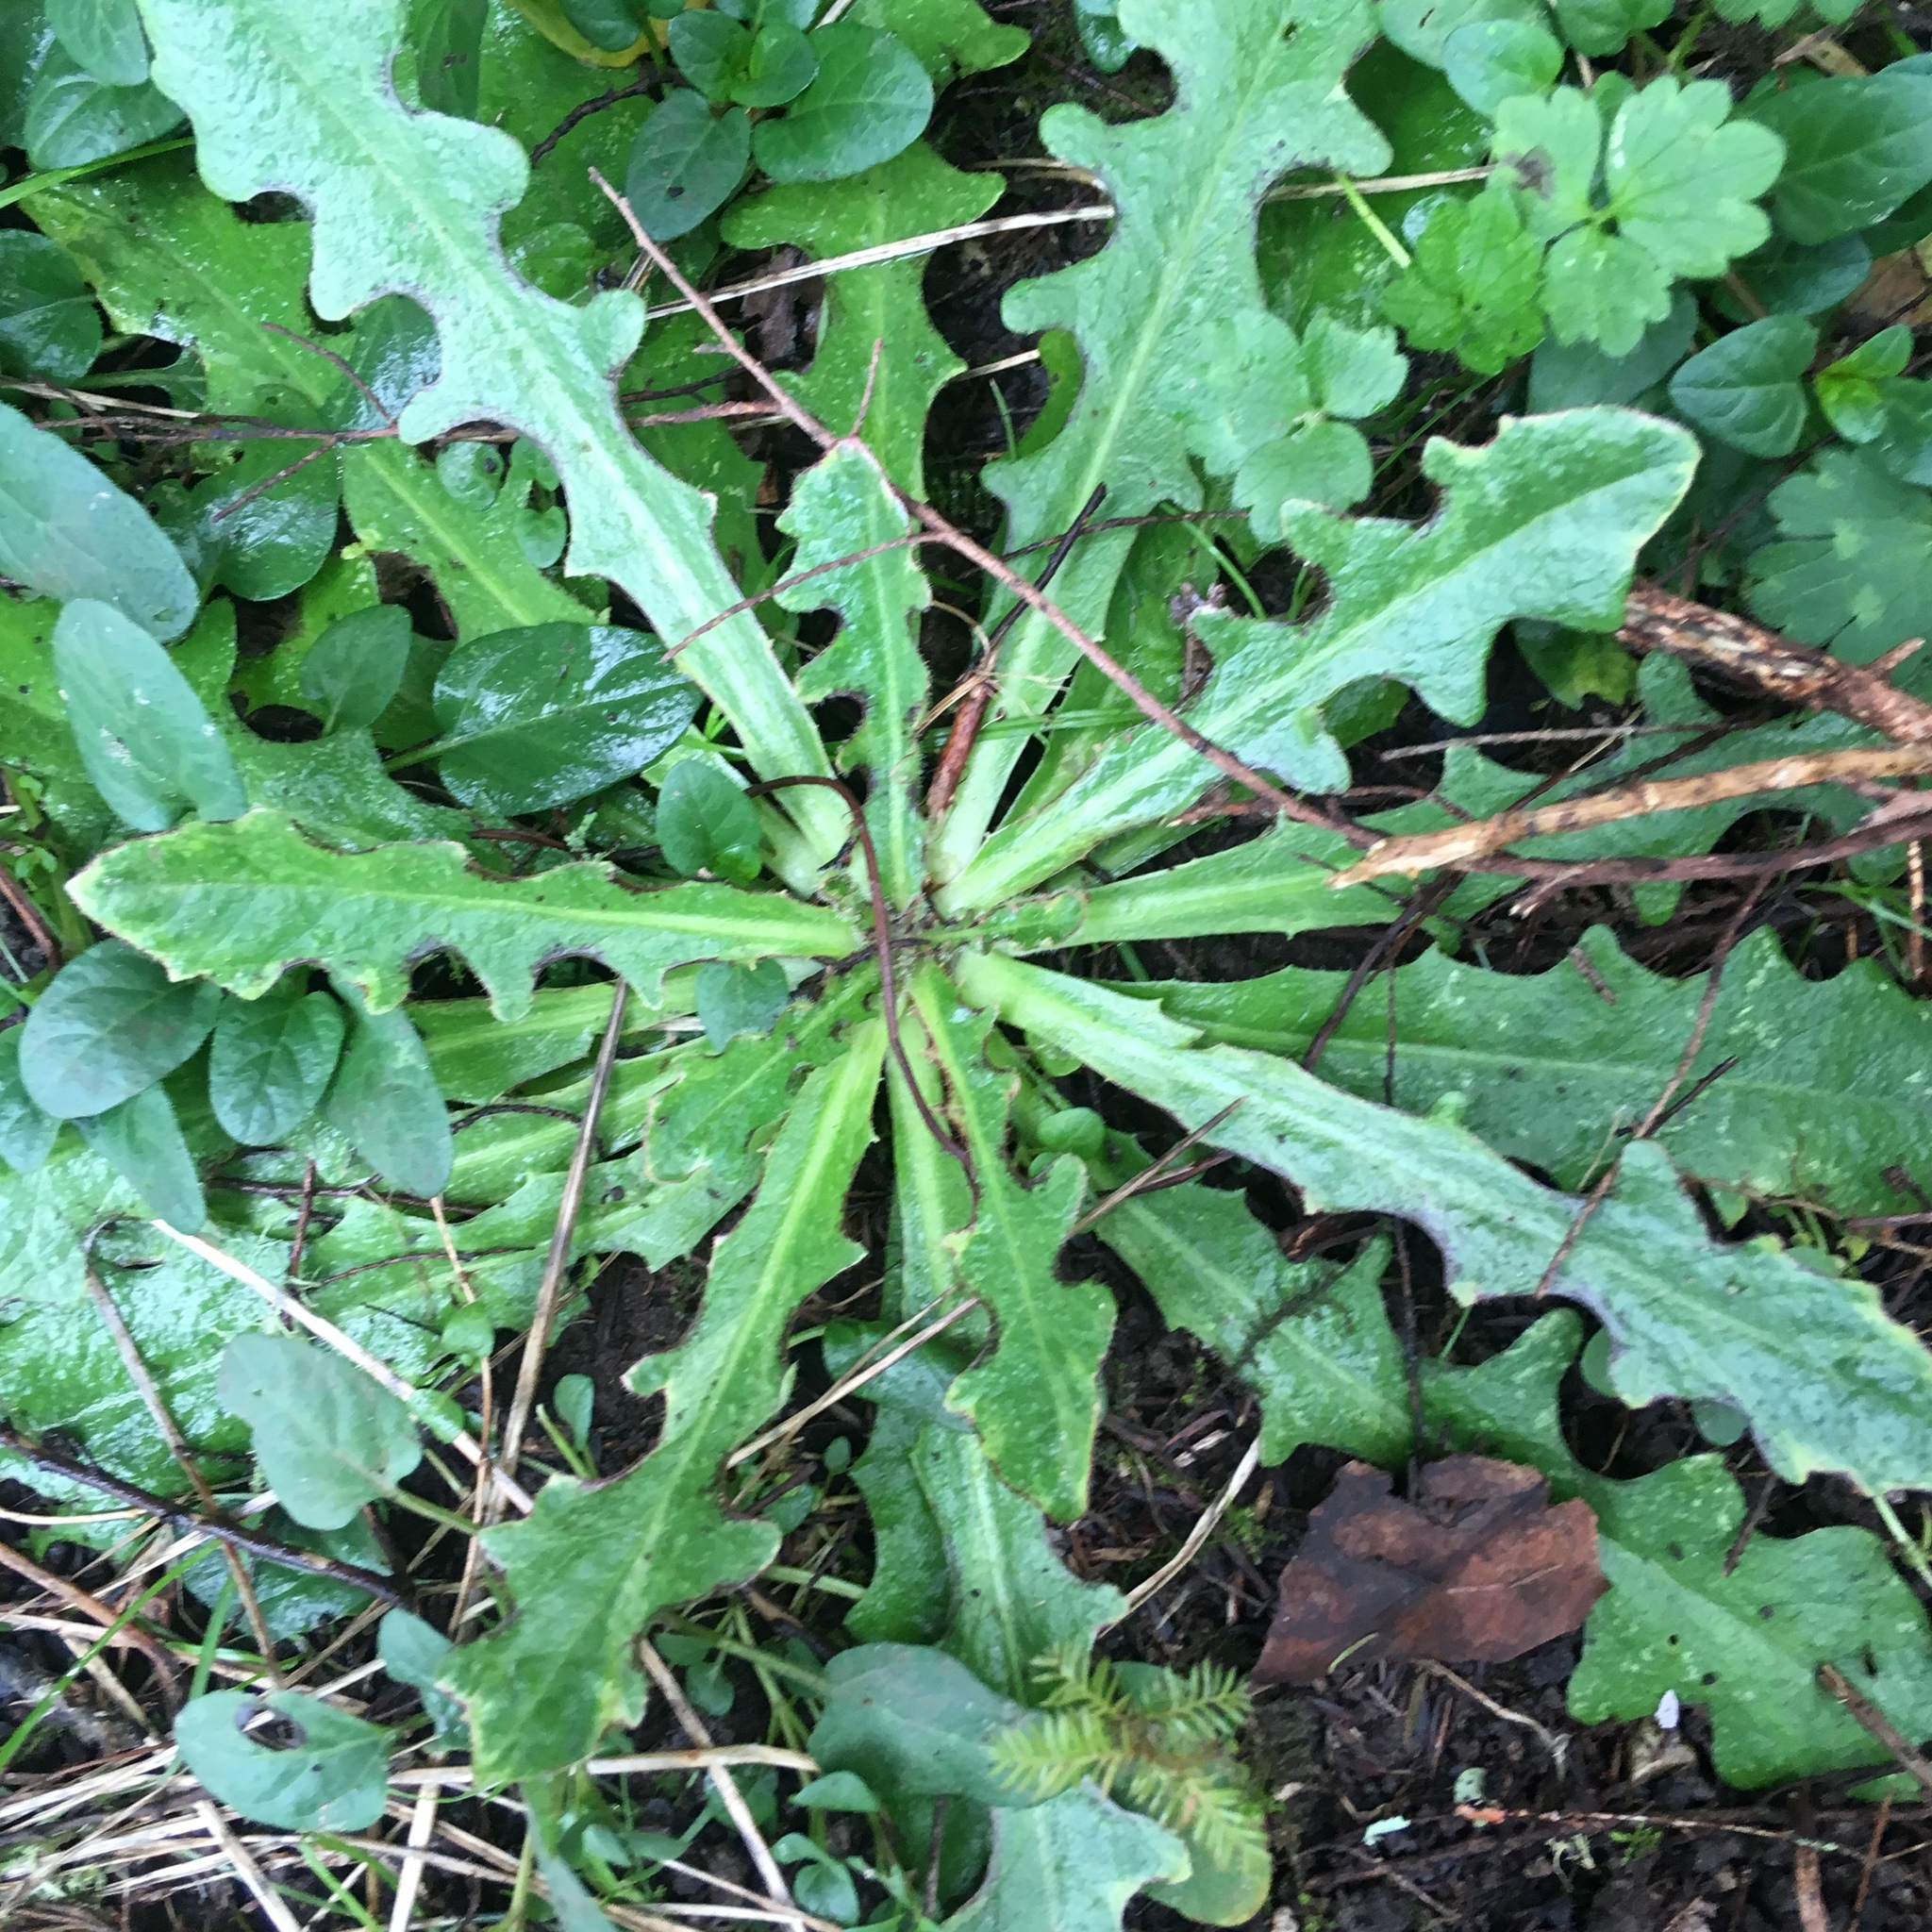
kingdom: Plantae
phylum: Tracheophyta
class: Magnoliopsida
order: Lamiales
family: Lamiaceae
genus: Prunella
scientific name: Prunella vulgaris
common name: Heal-all
